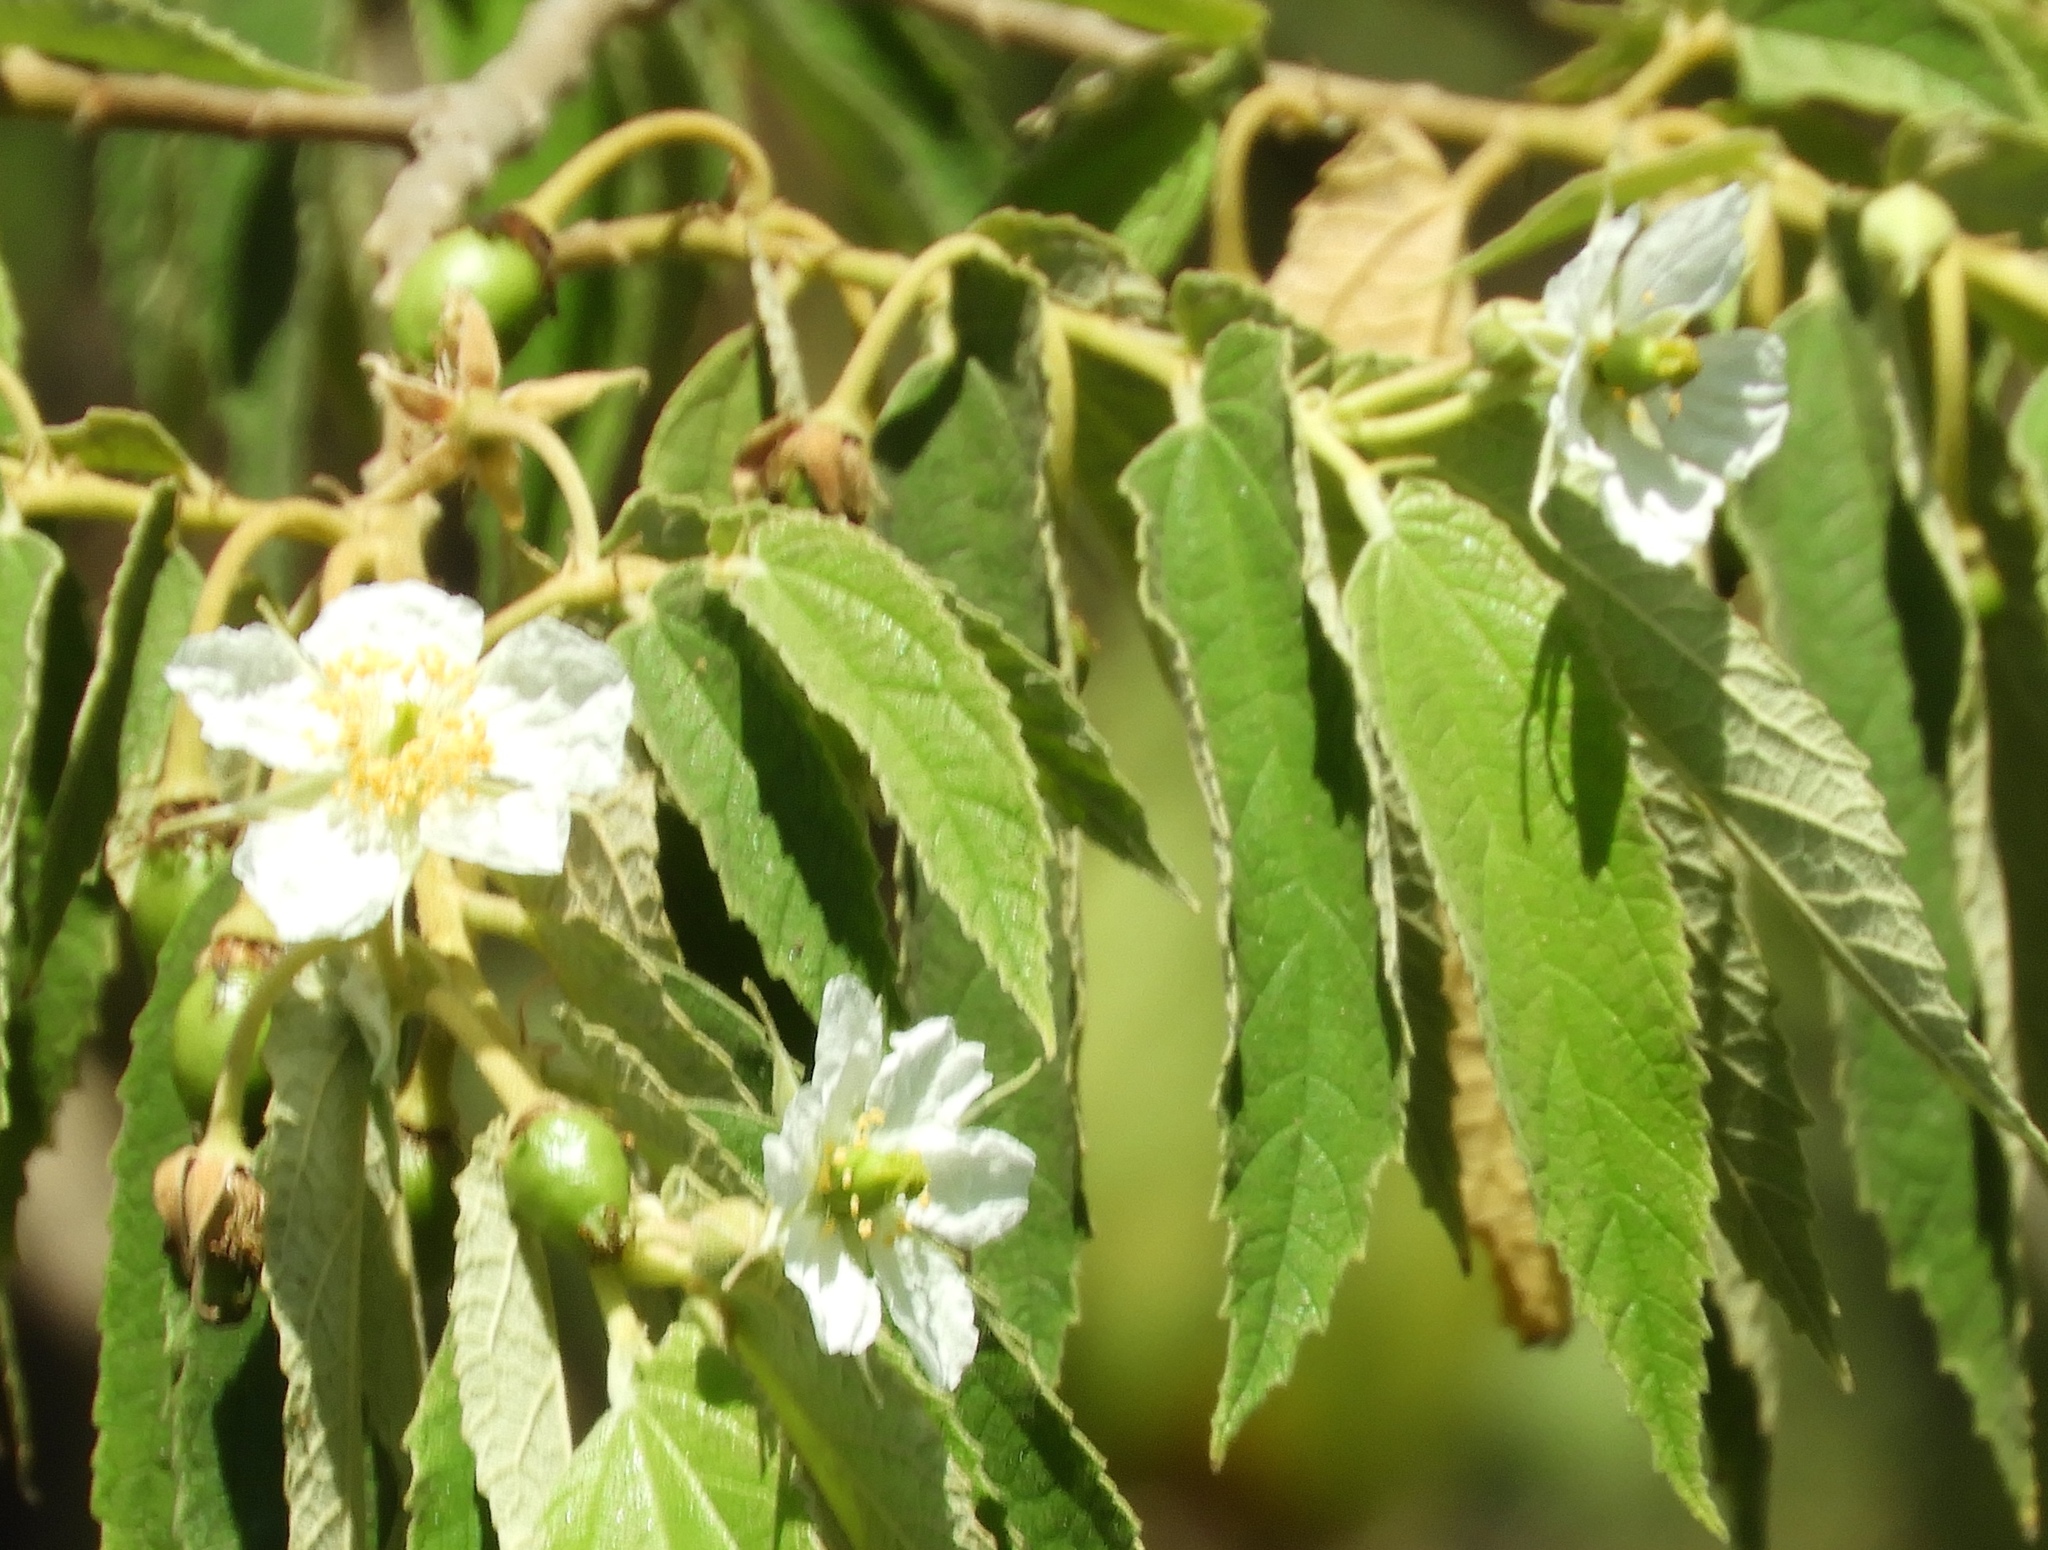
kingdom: Plantae
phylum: Tracheophyta
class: Magnoliopsida
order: Malvales
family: Muntingiaceae
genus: Muntingia
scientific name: Muntingia calabura
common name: Strawberrytree
